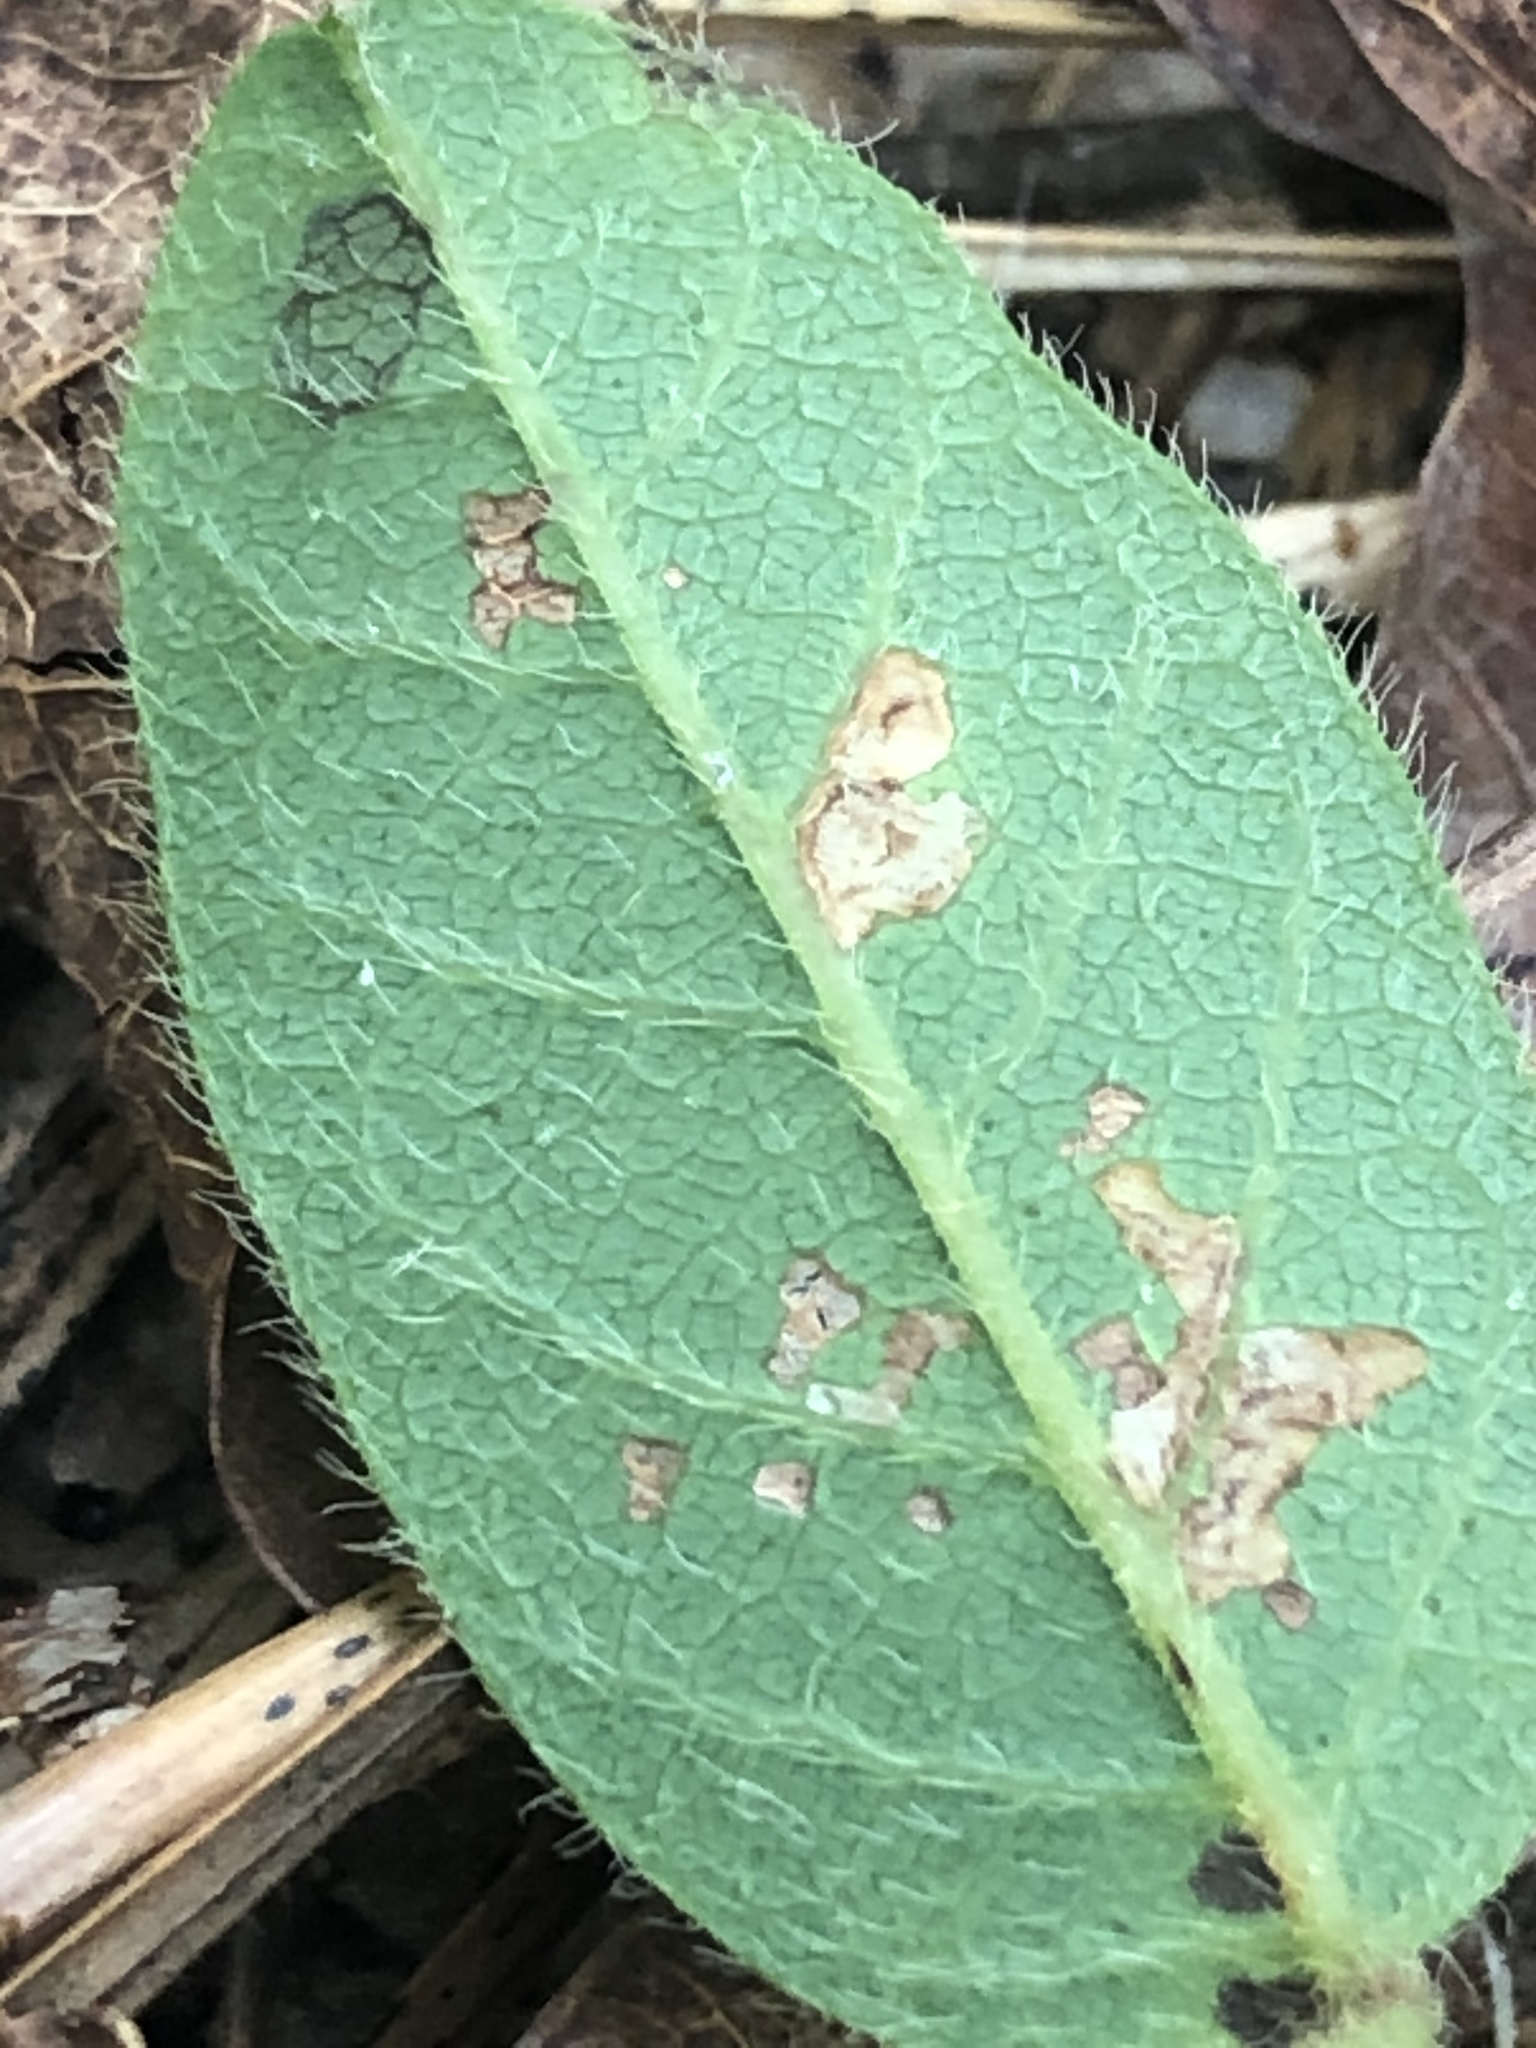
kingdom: Plantae
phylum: Tracheophyta
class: Magnoliopsida
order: Fabales
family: Fabaceae
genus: Desmodium
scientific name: Desmodium ciliare
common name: Hairy small-leaf ticktrefoil
